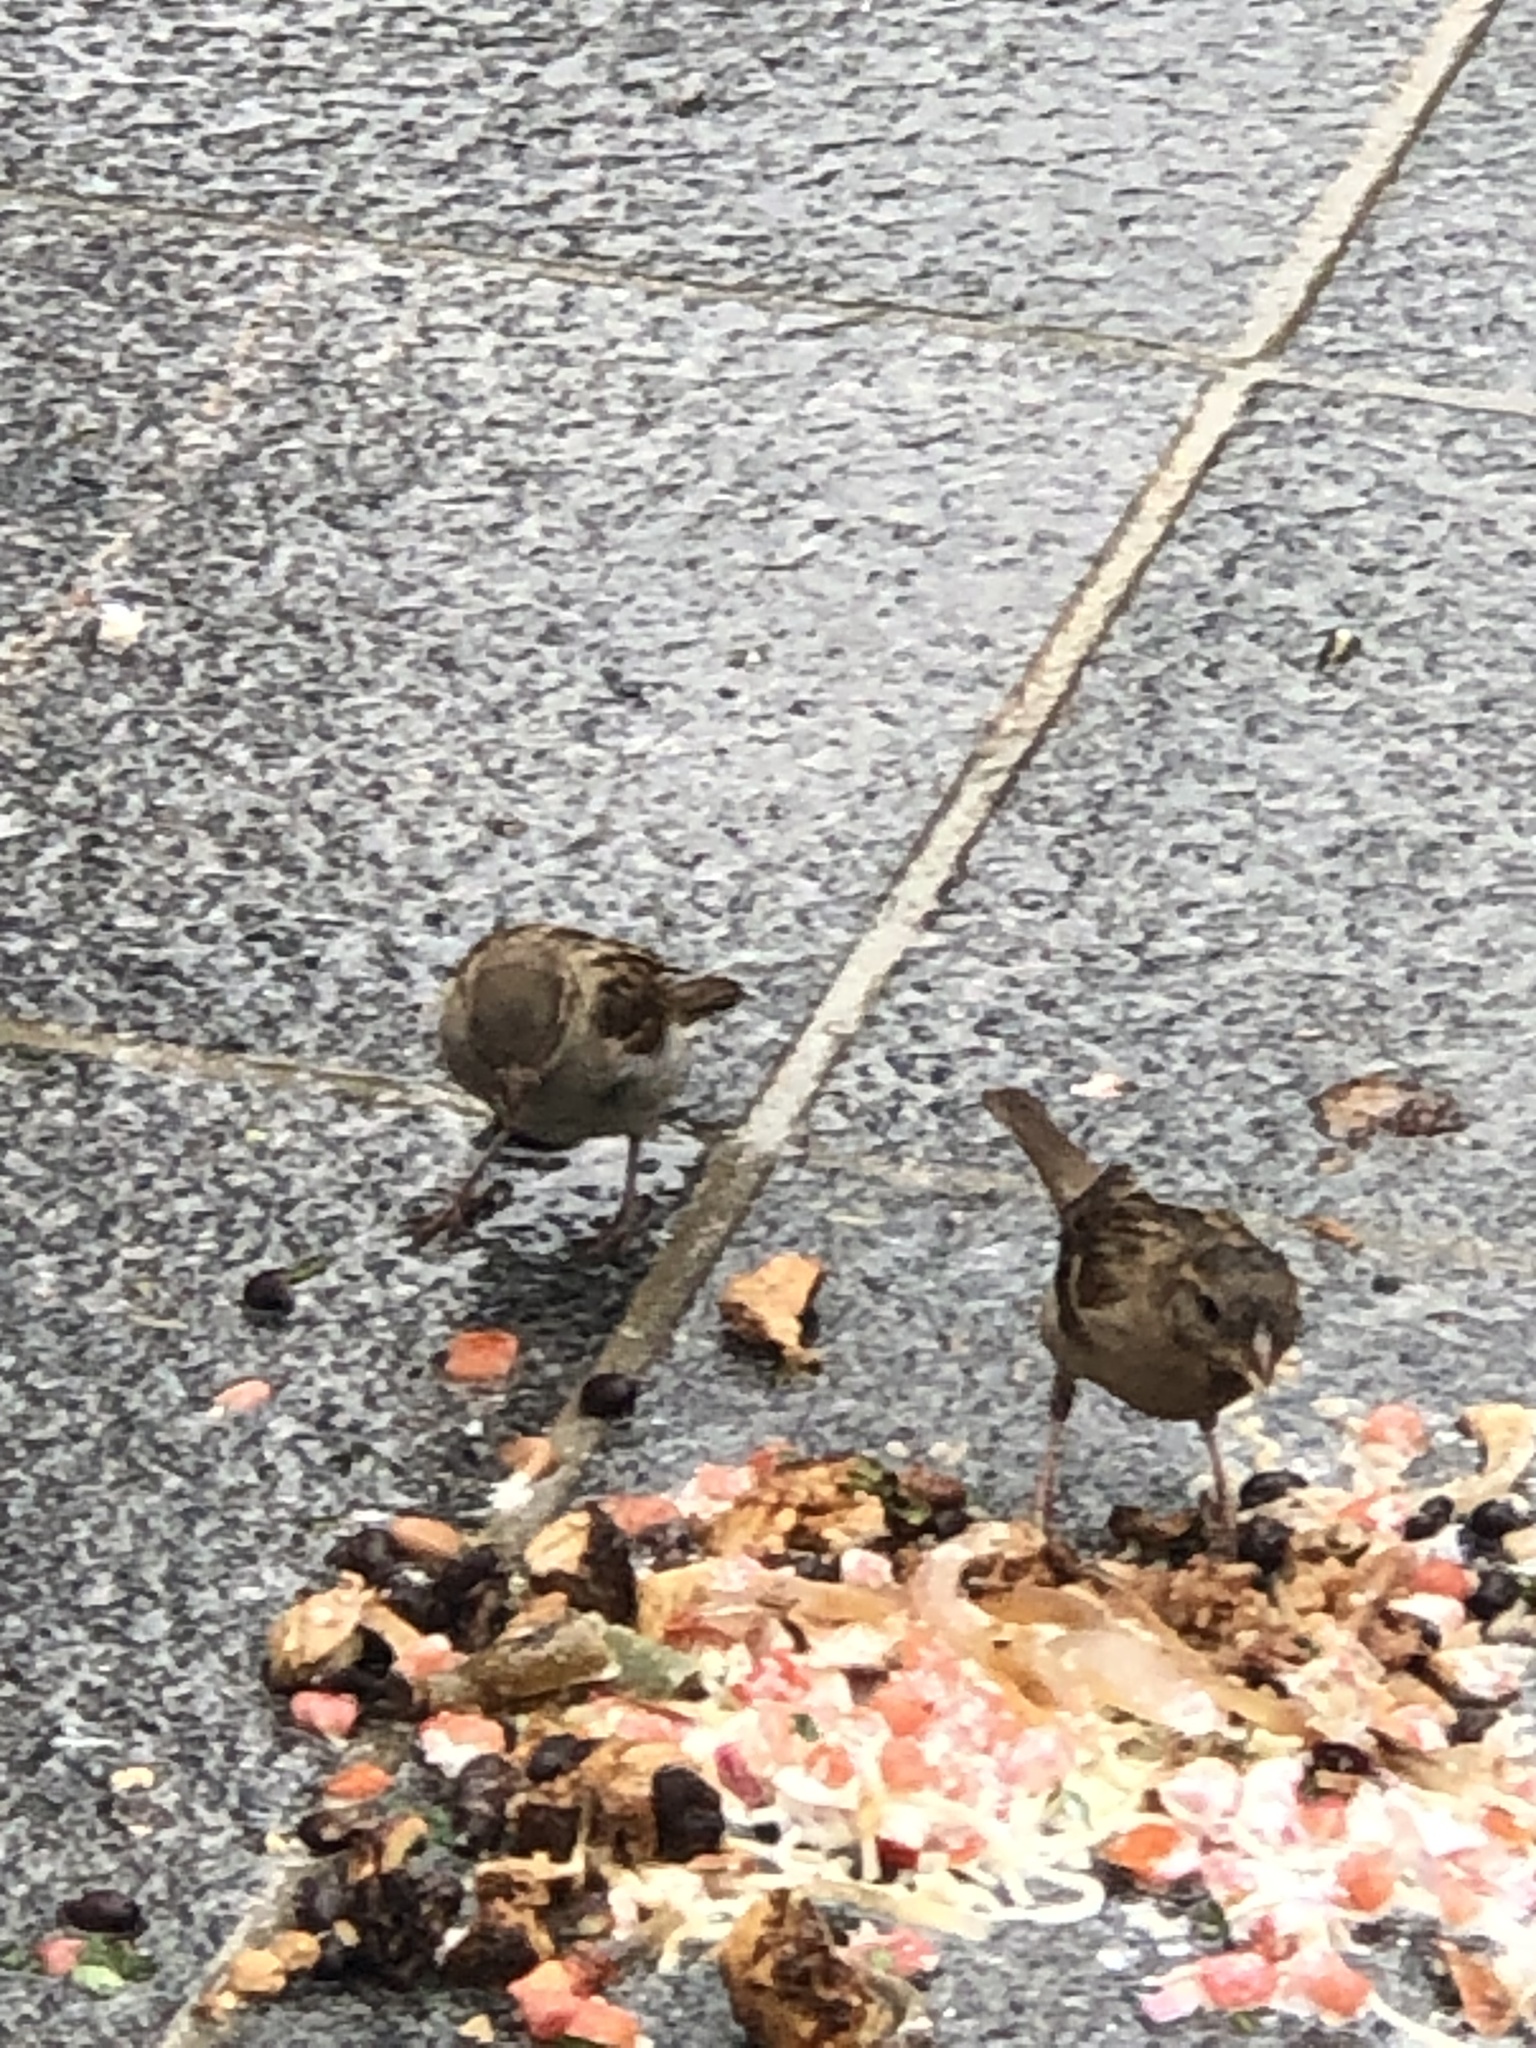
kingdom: Animalia
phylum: Chordata
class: Aves
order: Passeriformes
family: Passeridae
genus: Passer
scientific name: Passer domesticus
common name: House sparrow
